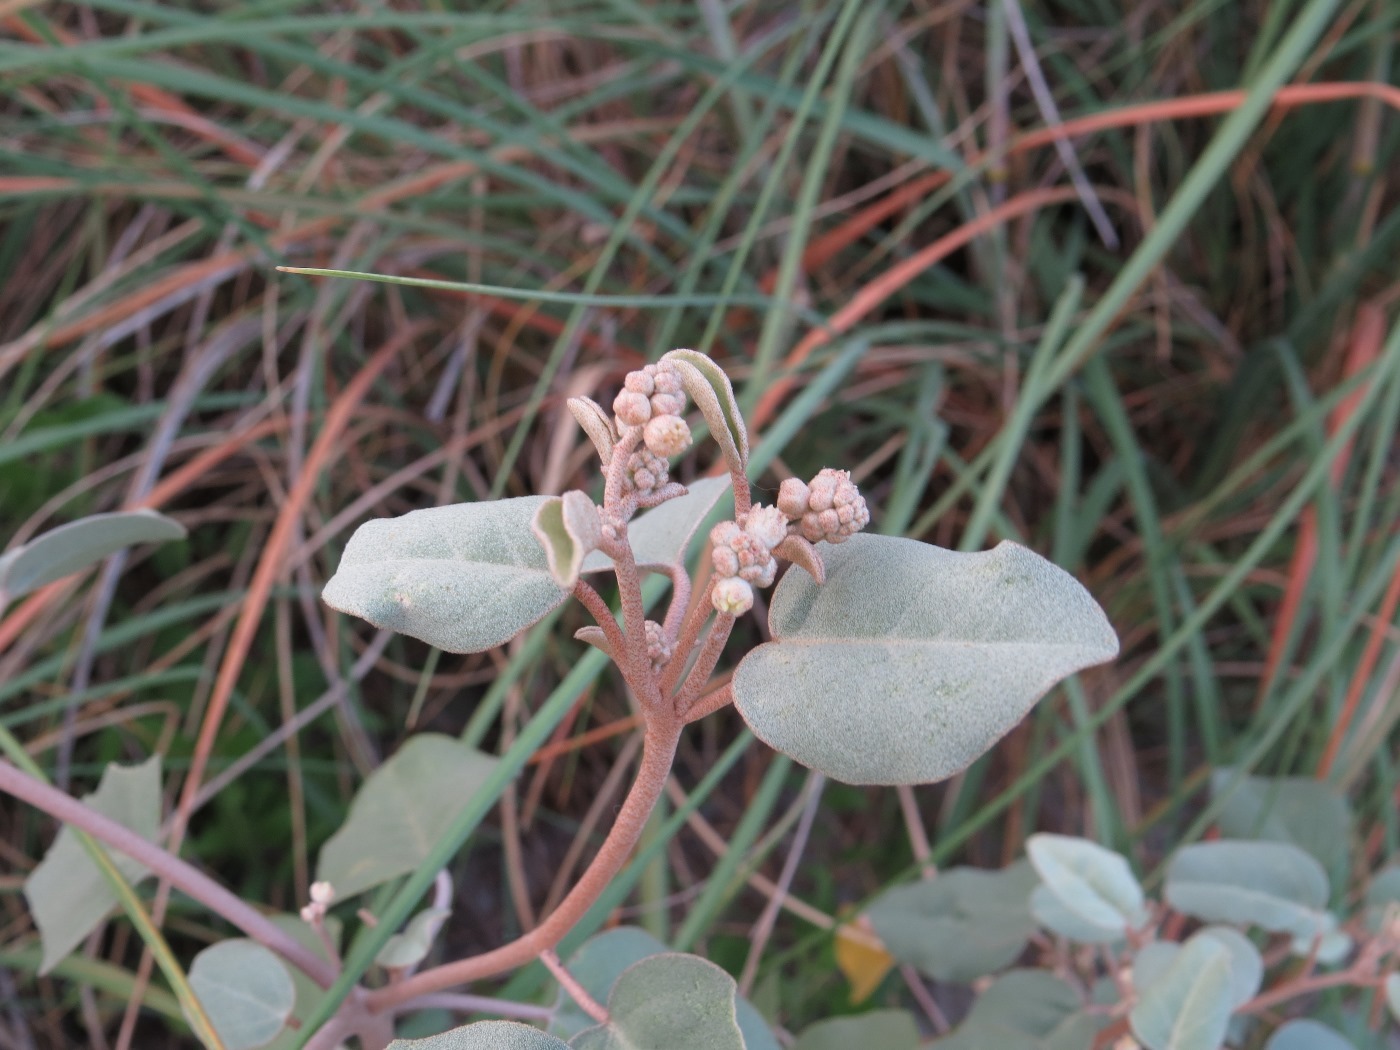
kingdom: Plantae
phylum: Tracheophyta
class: Magnoliopsida
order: Malpighiales
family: Euphorbiaceae
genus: Croton
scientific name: Croton punctatus
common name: Beach-tea
